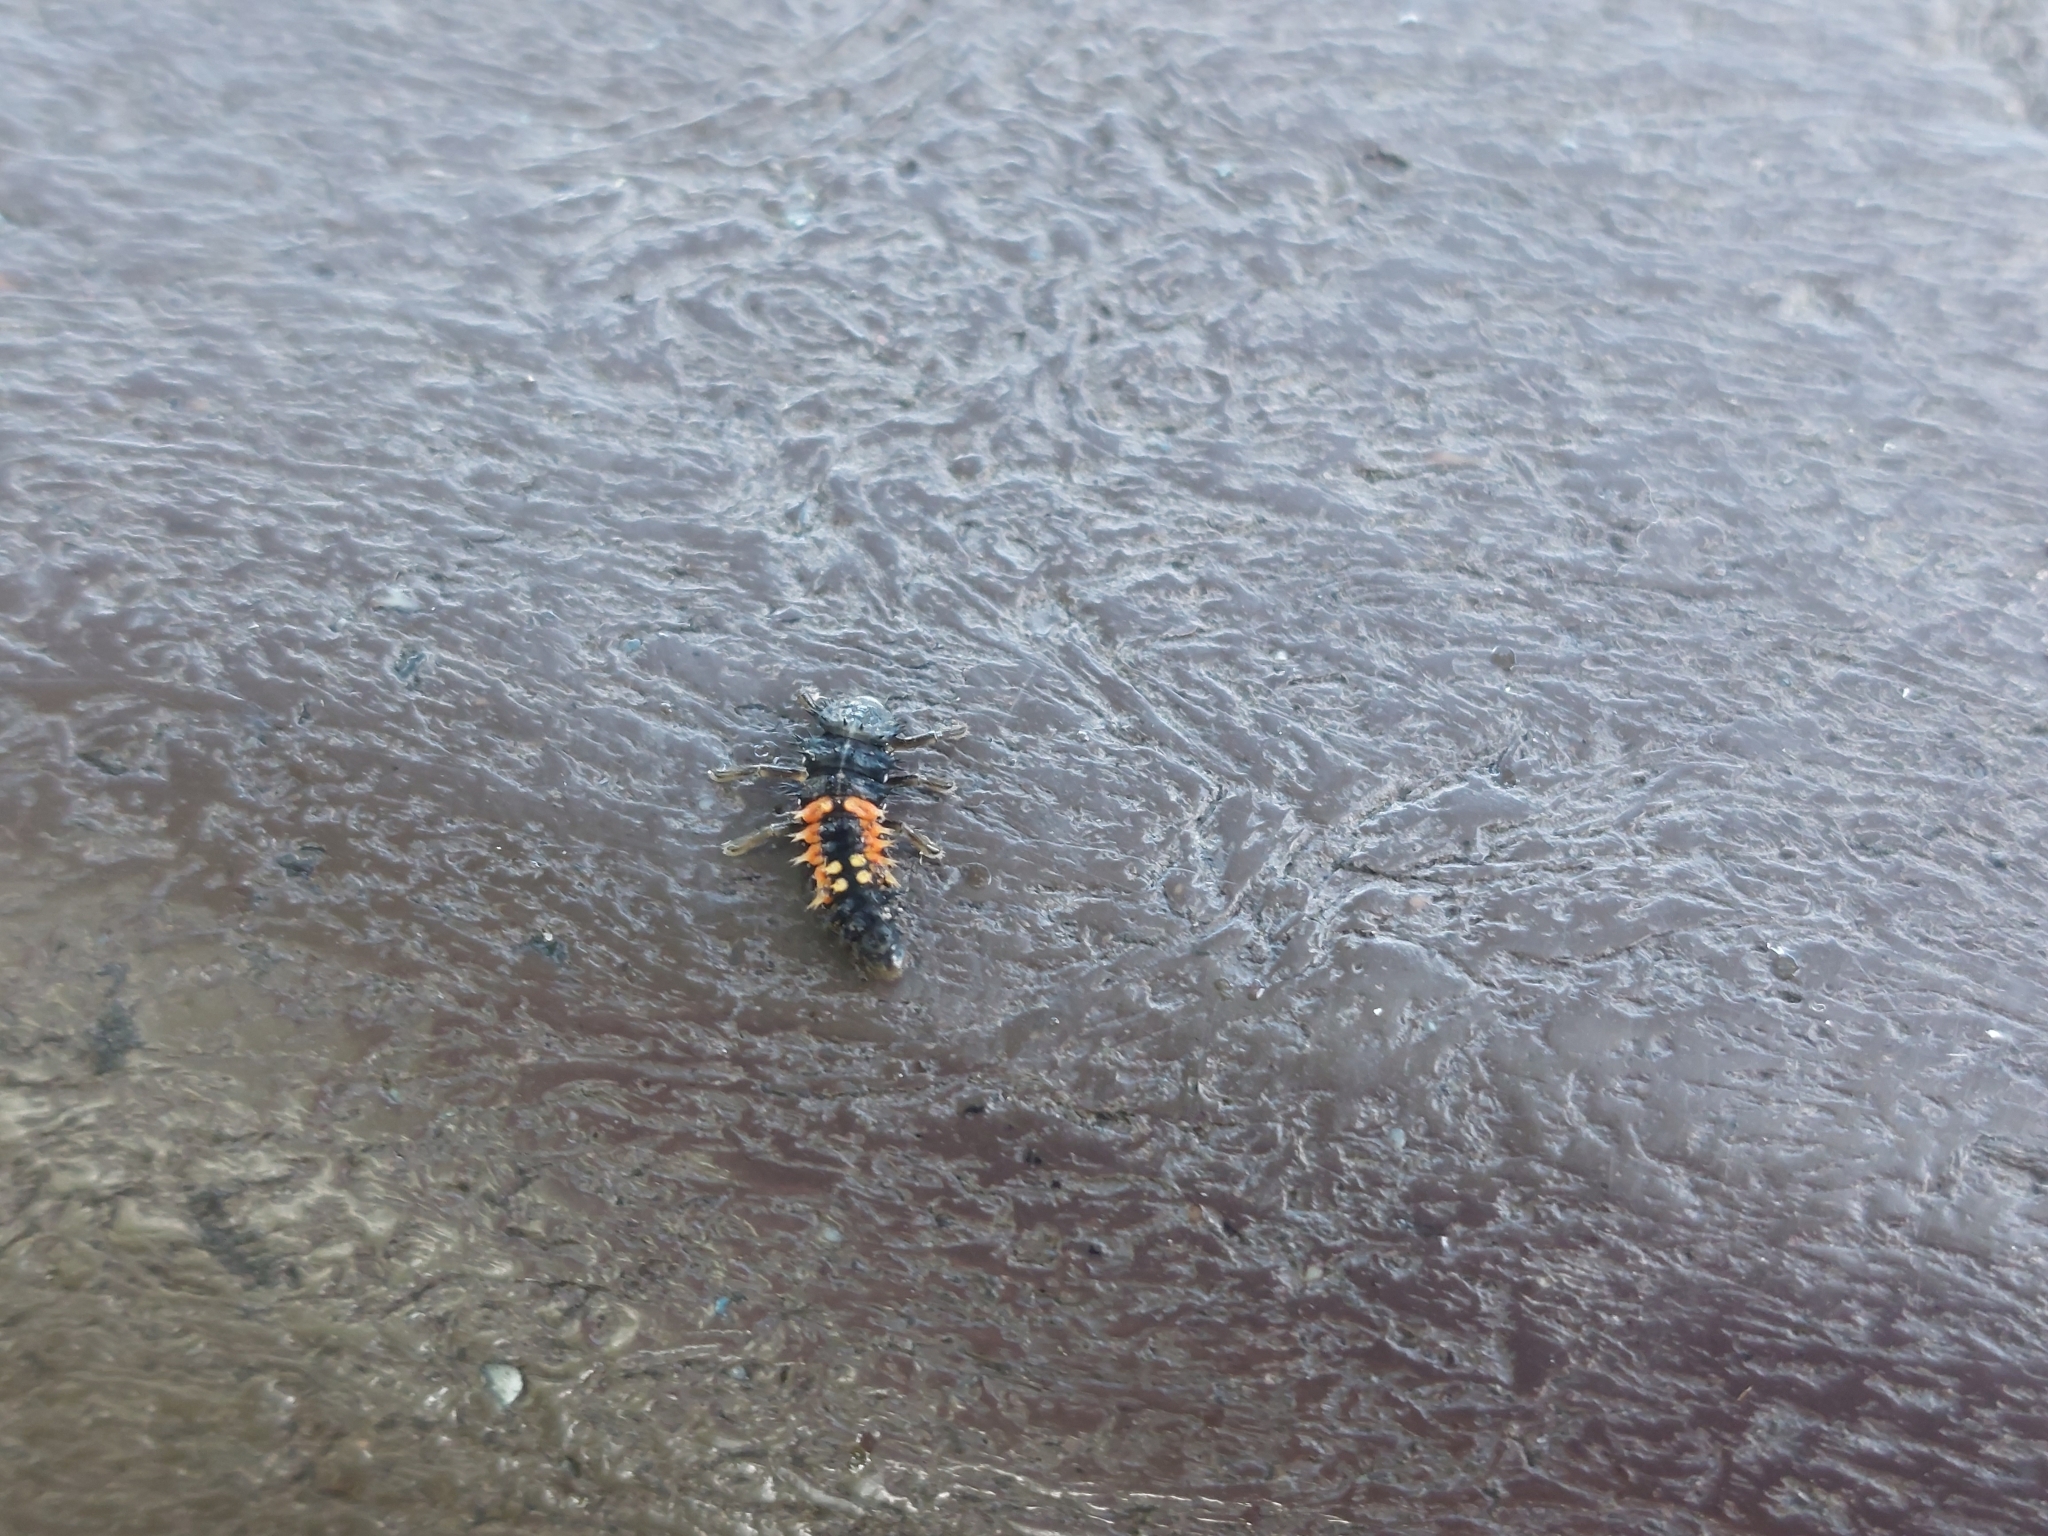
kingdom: Animalia
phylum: Arthropoda
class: Insecta
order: Coleoptera
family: Coccinellidae
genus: Harmonia
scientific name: Harmonia axyridis
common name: Harlequin ladybird
